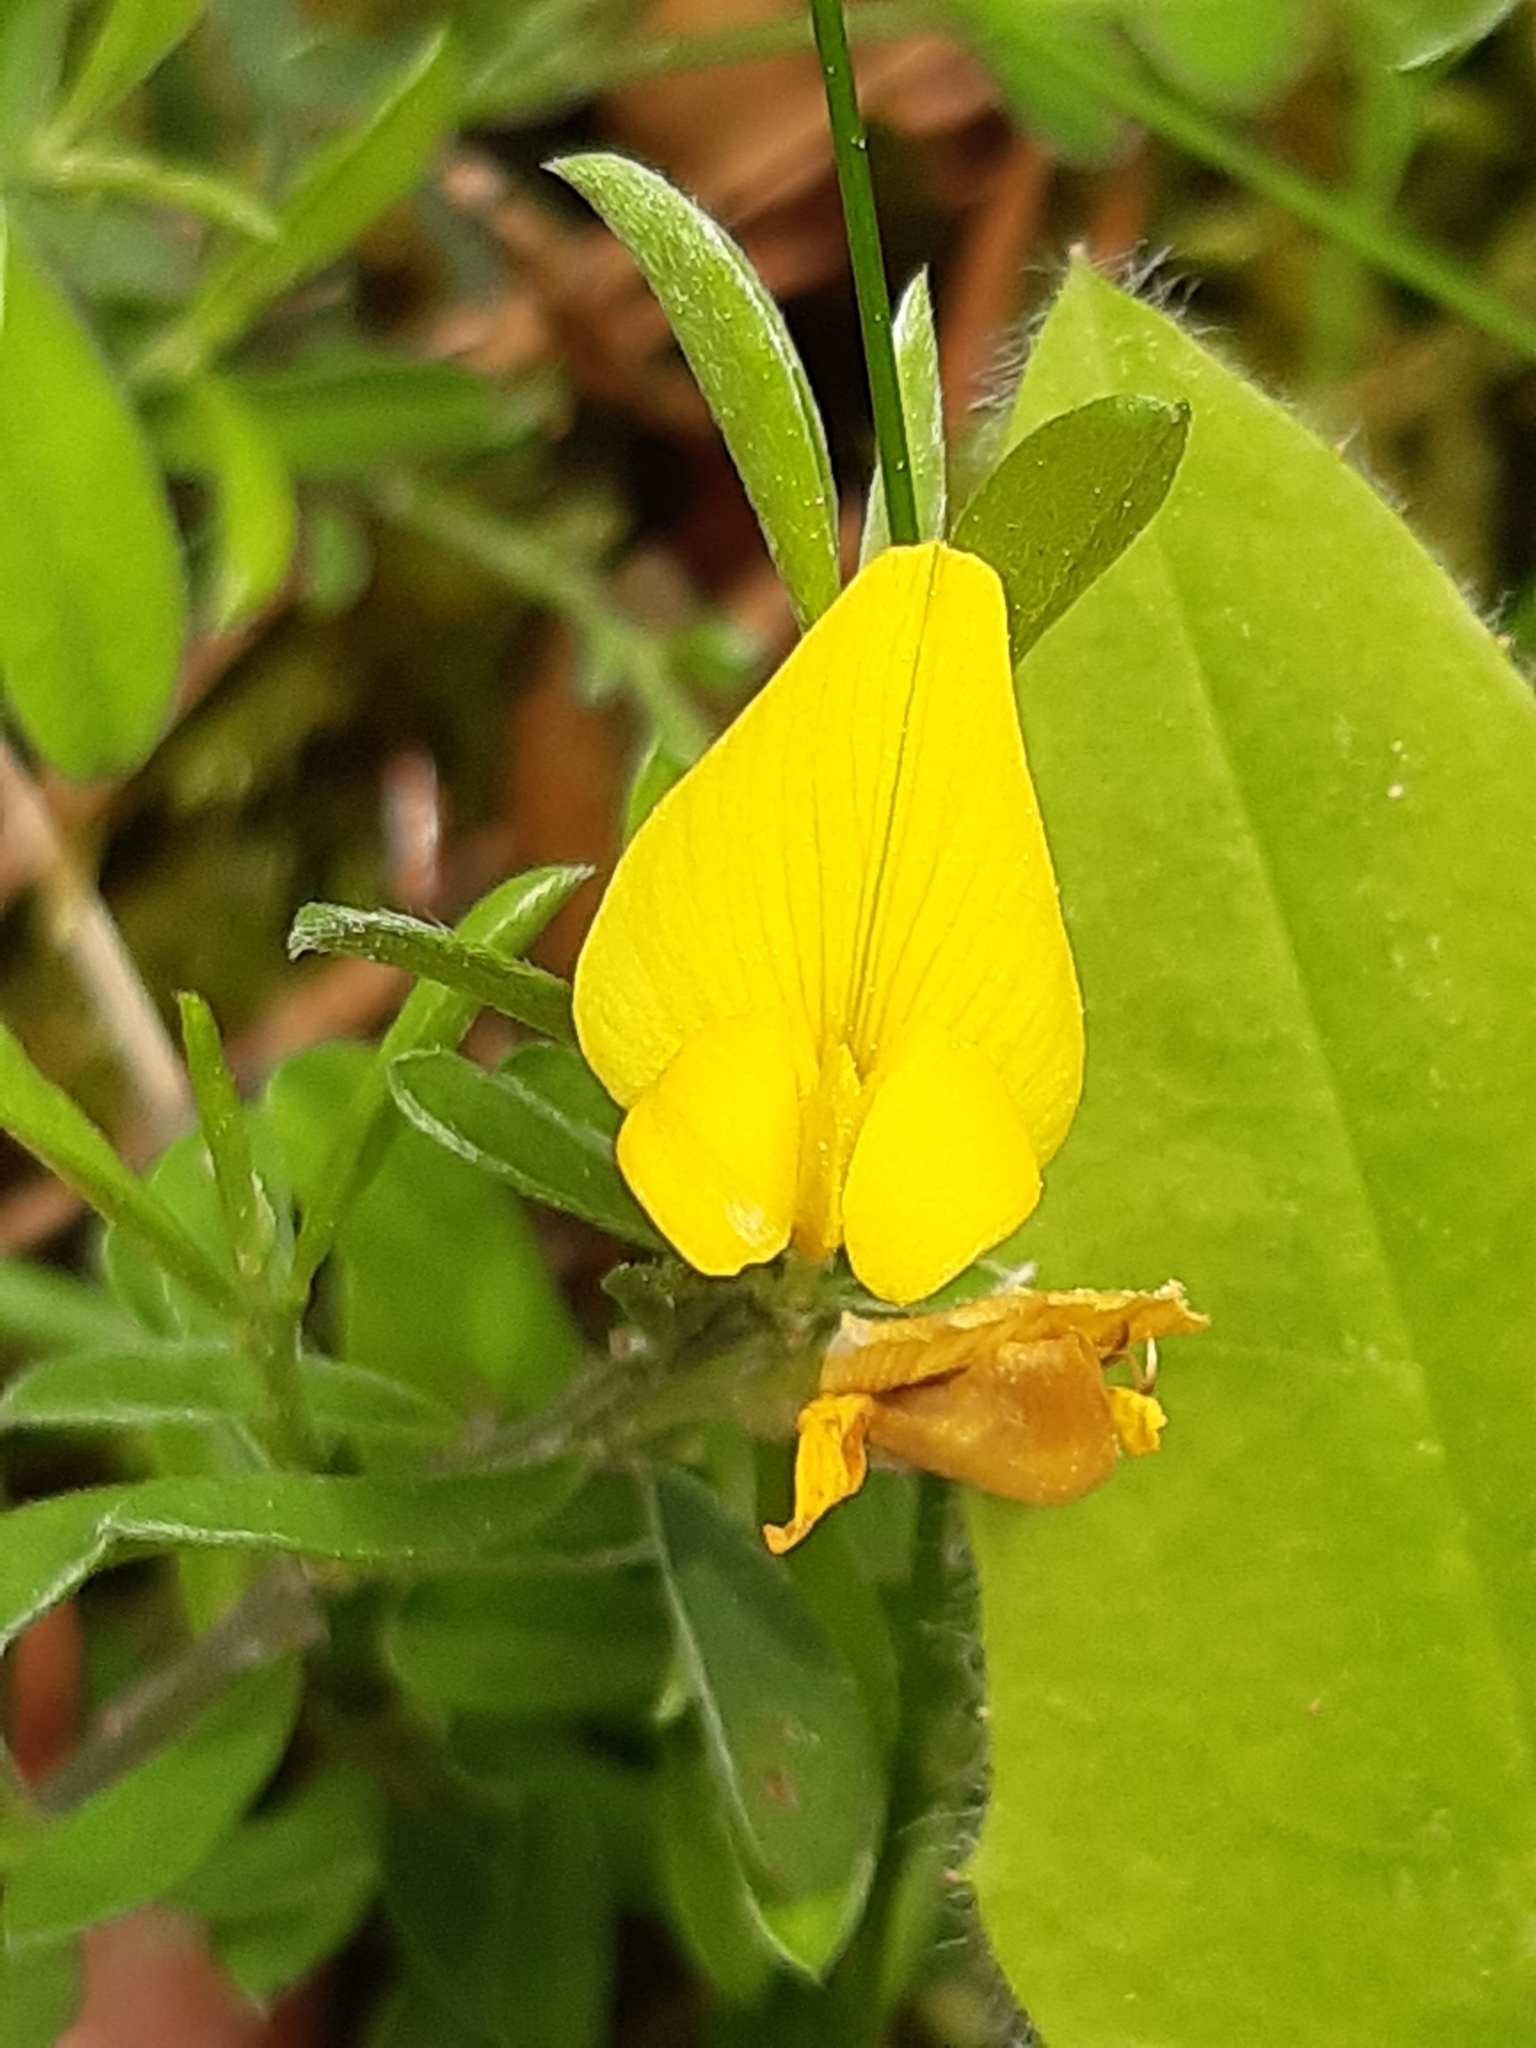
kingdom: Plantae
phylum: Tracheophyta
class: Magnoliopsida
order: Fabales
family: Fabaceae
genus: Genista
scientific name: Genista pilosa
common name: Hairy greenweed
